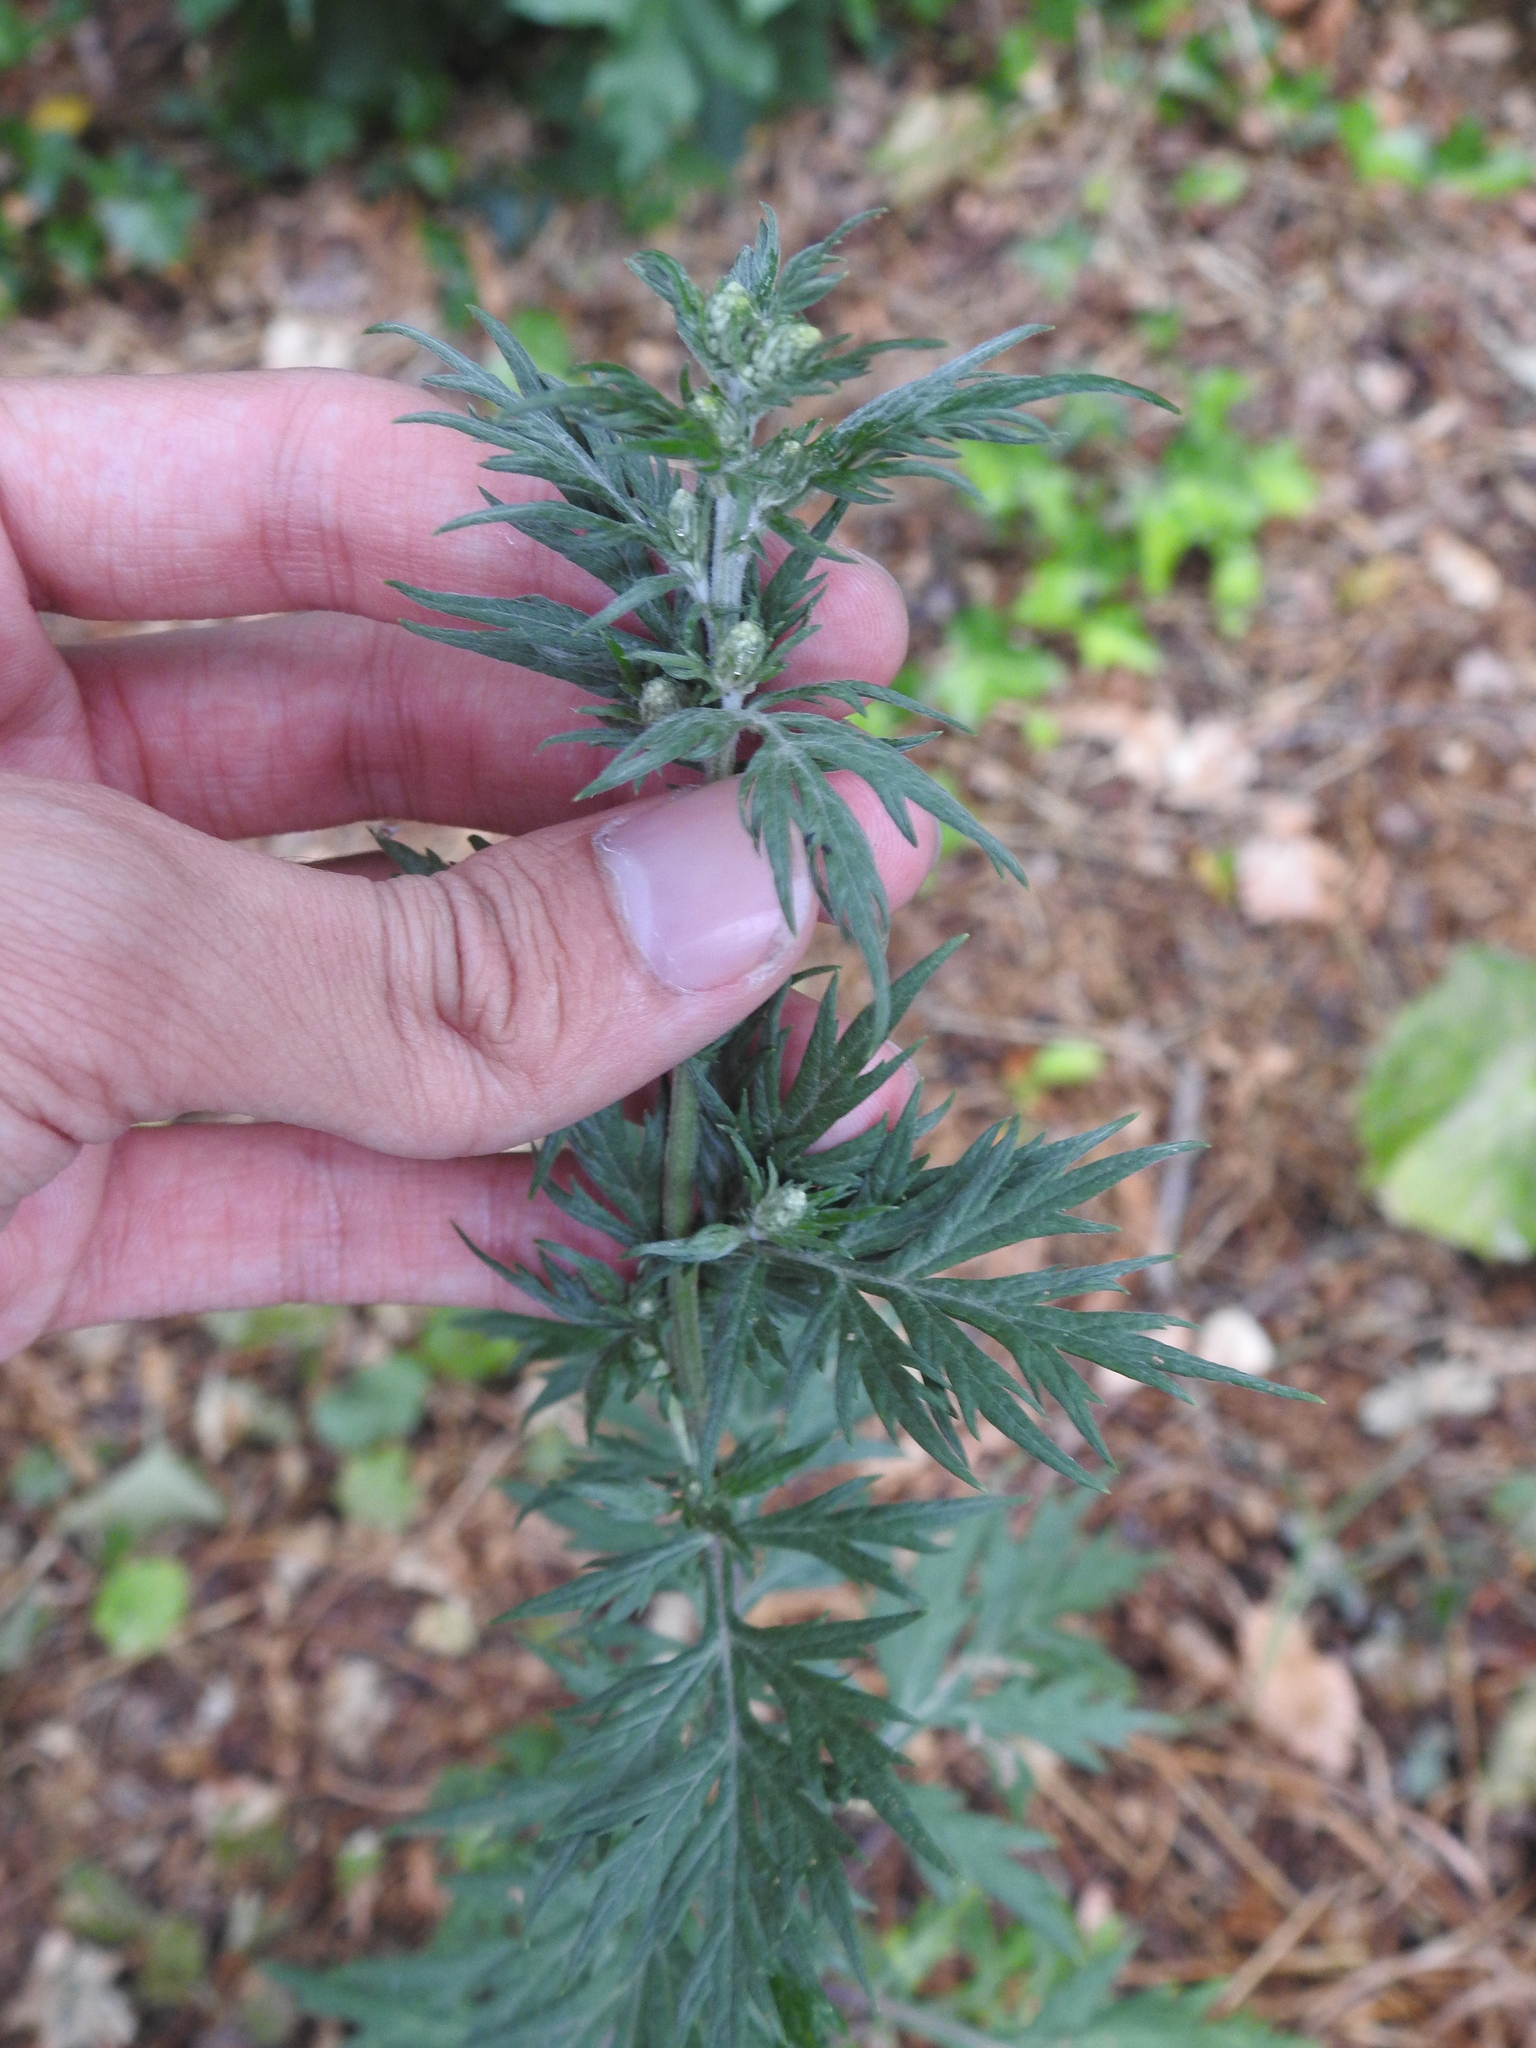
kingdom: Plantae
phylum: Tracheophyta
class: Magnoliopsida
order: Asterales
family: Asteraceae
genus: Artemisia
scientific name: Artemisia vulgaris
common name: Mugwort
